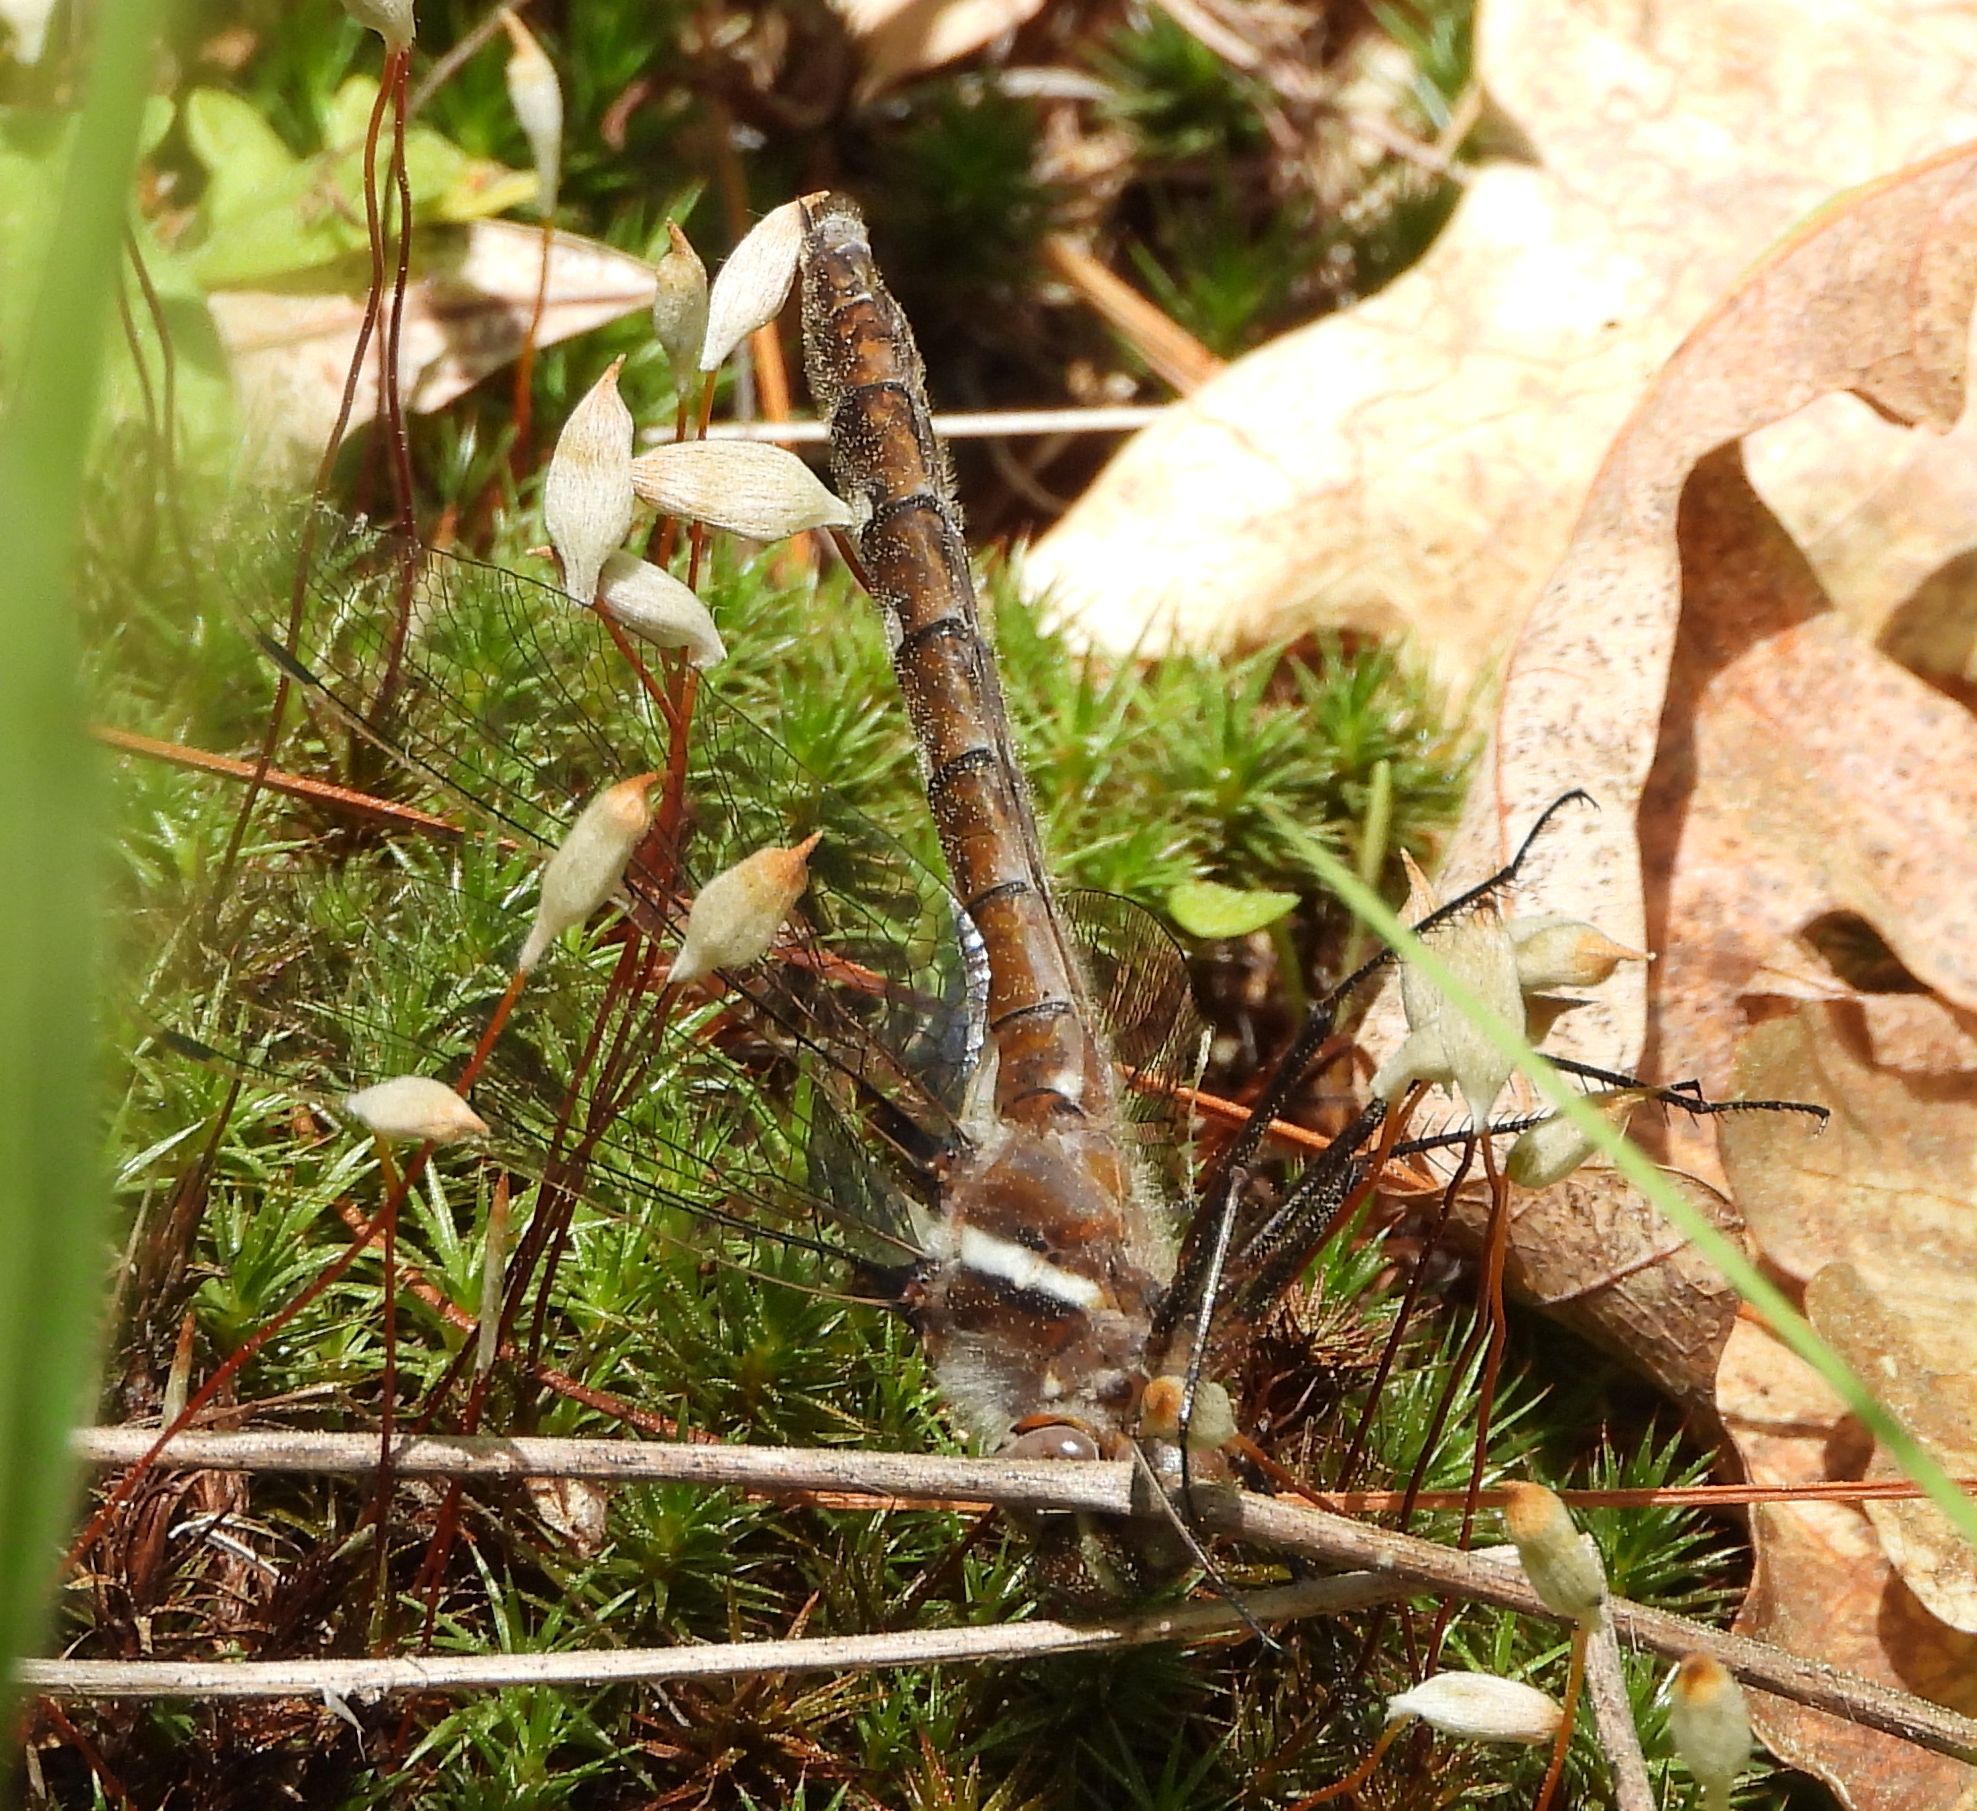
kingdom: Animalia
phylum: Arthropoda
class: Insecta
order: Odonata
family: Macromiidae
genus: Didymops
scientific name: Didymops transversa
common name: Stream cruiser
